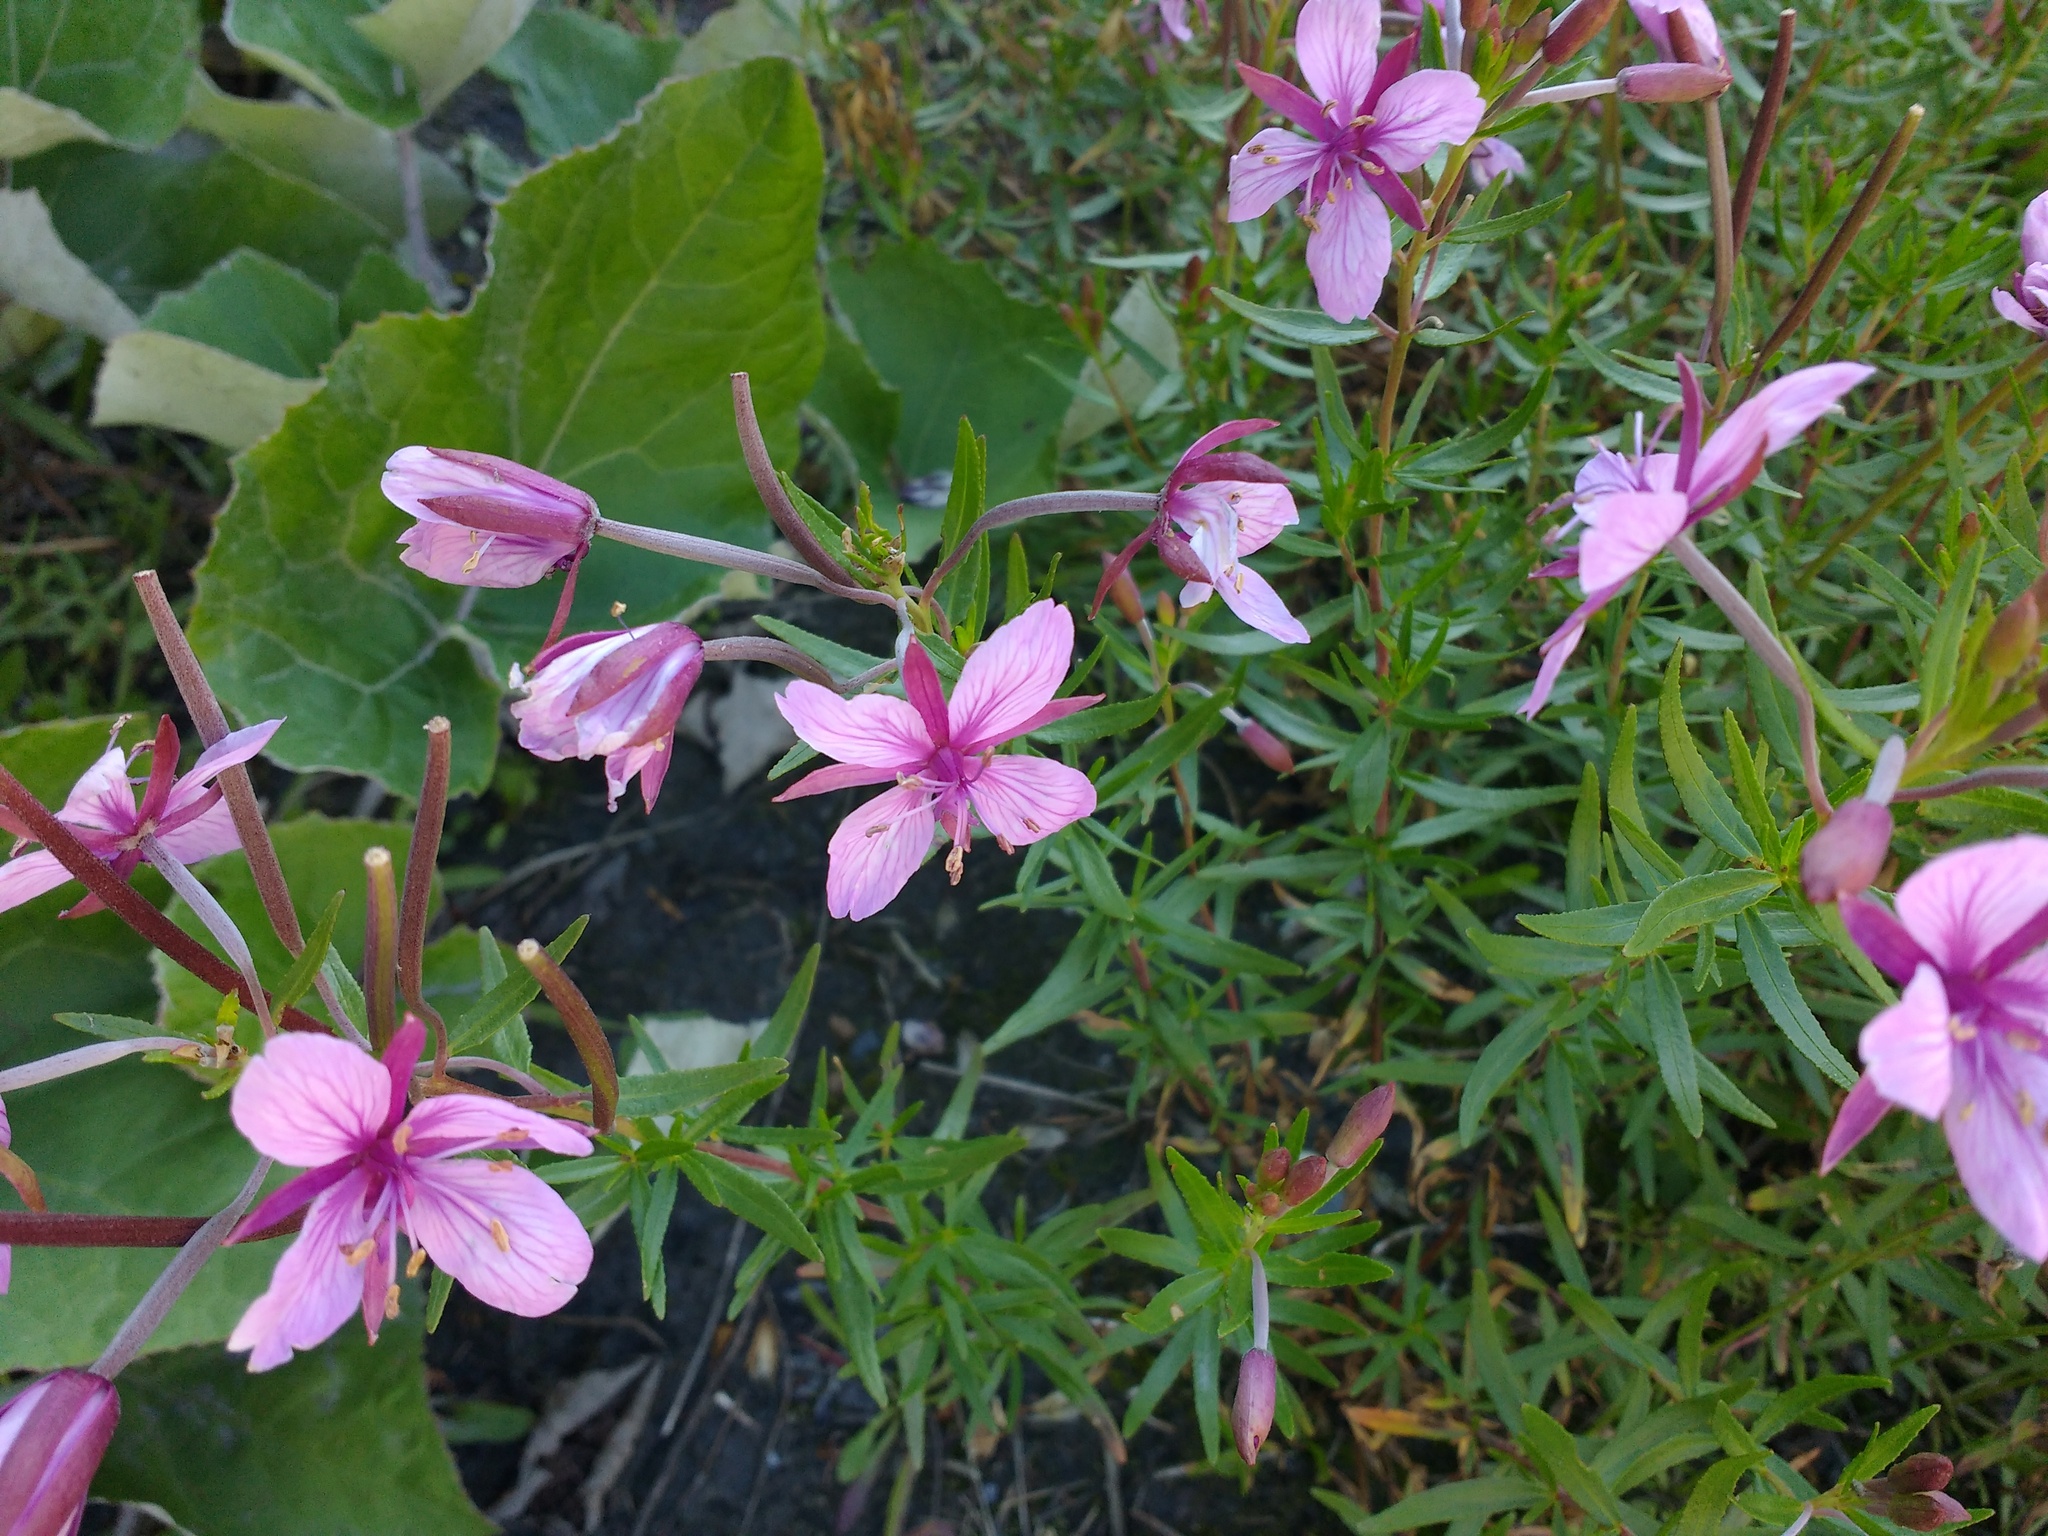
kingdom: Plantae
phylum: Tracheophyta
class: Magnoliopsida
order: Myrtales
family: Onagraceae
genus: Chamaenerion
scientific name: Chamaenerion fleischeri
